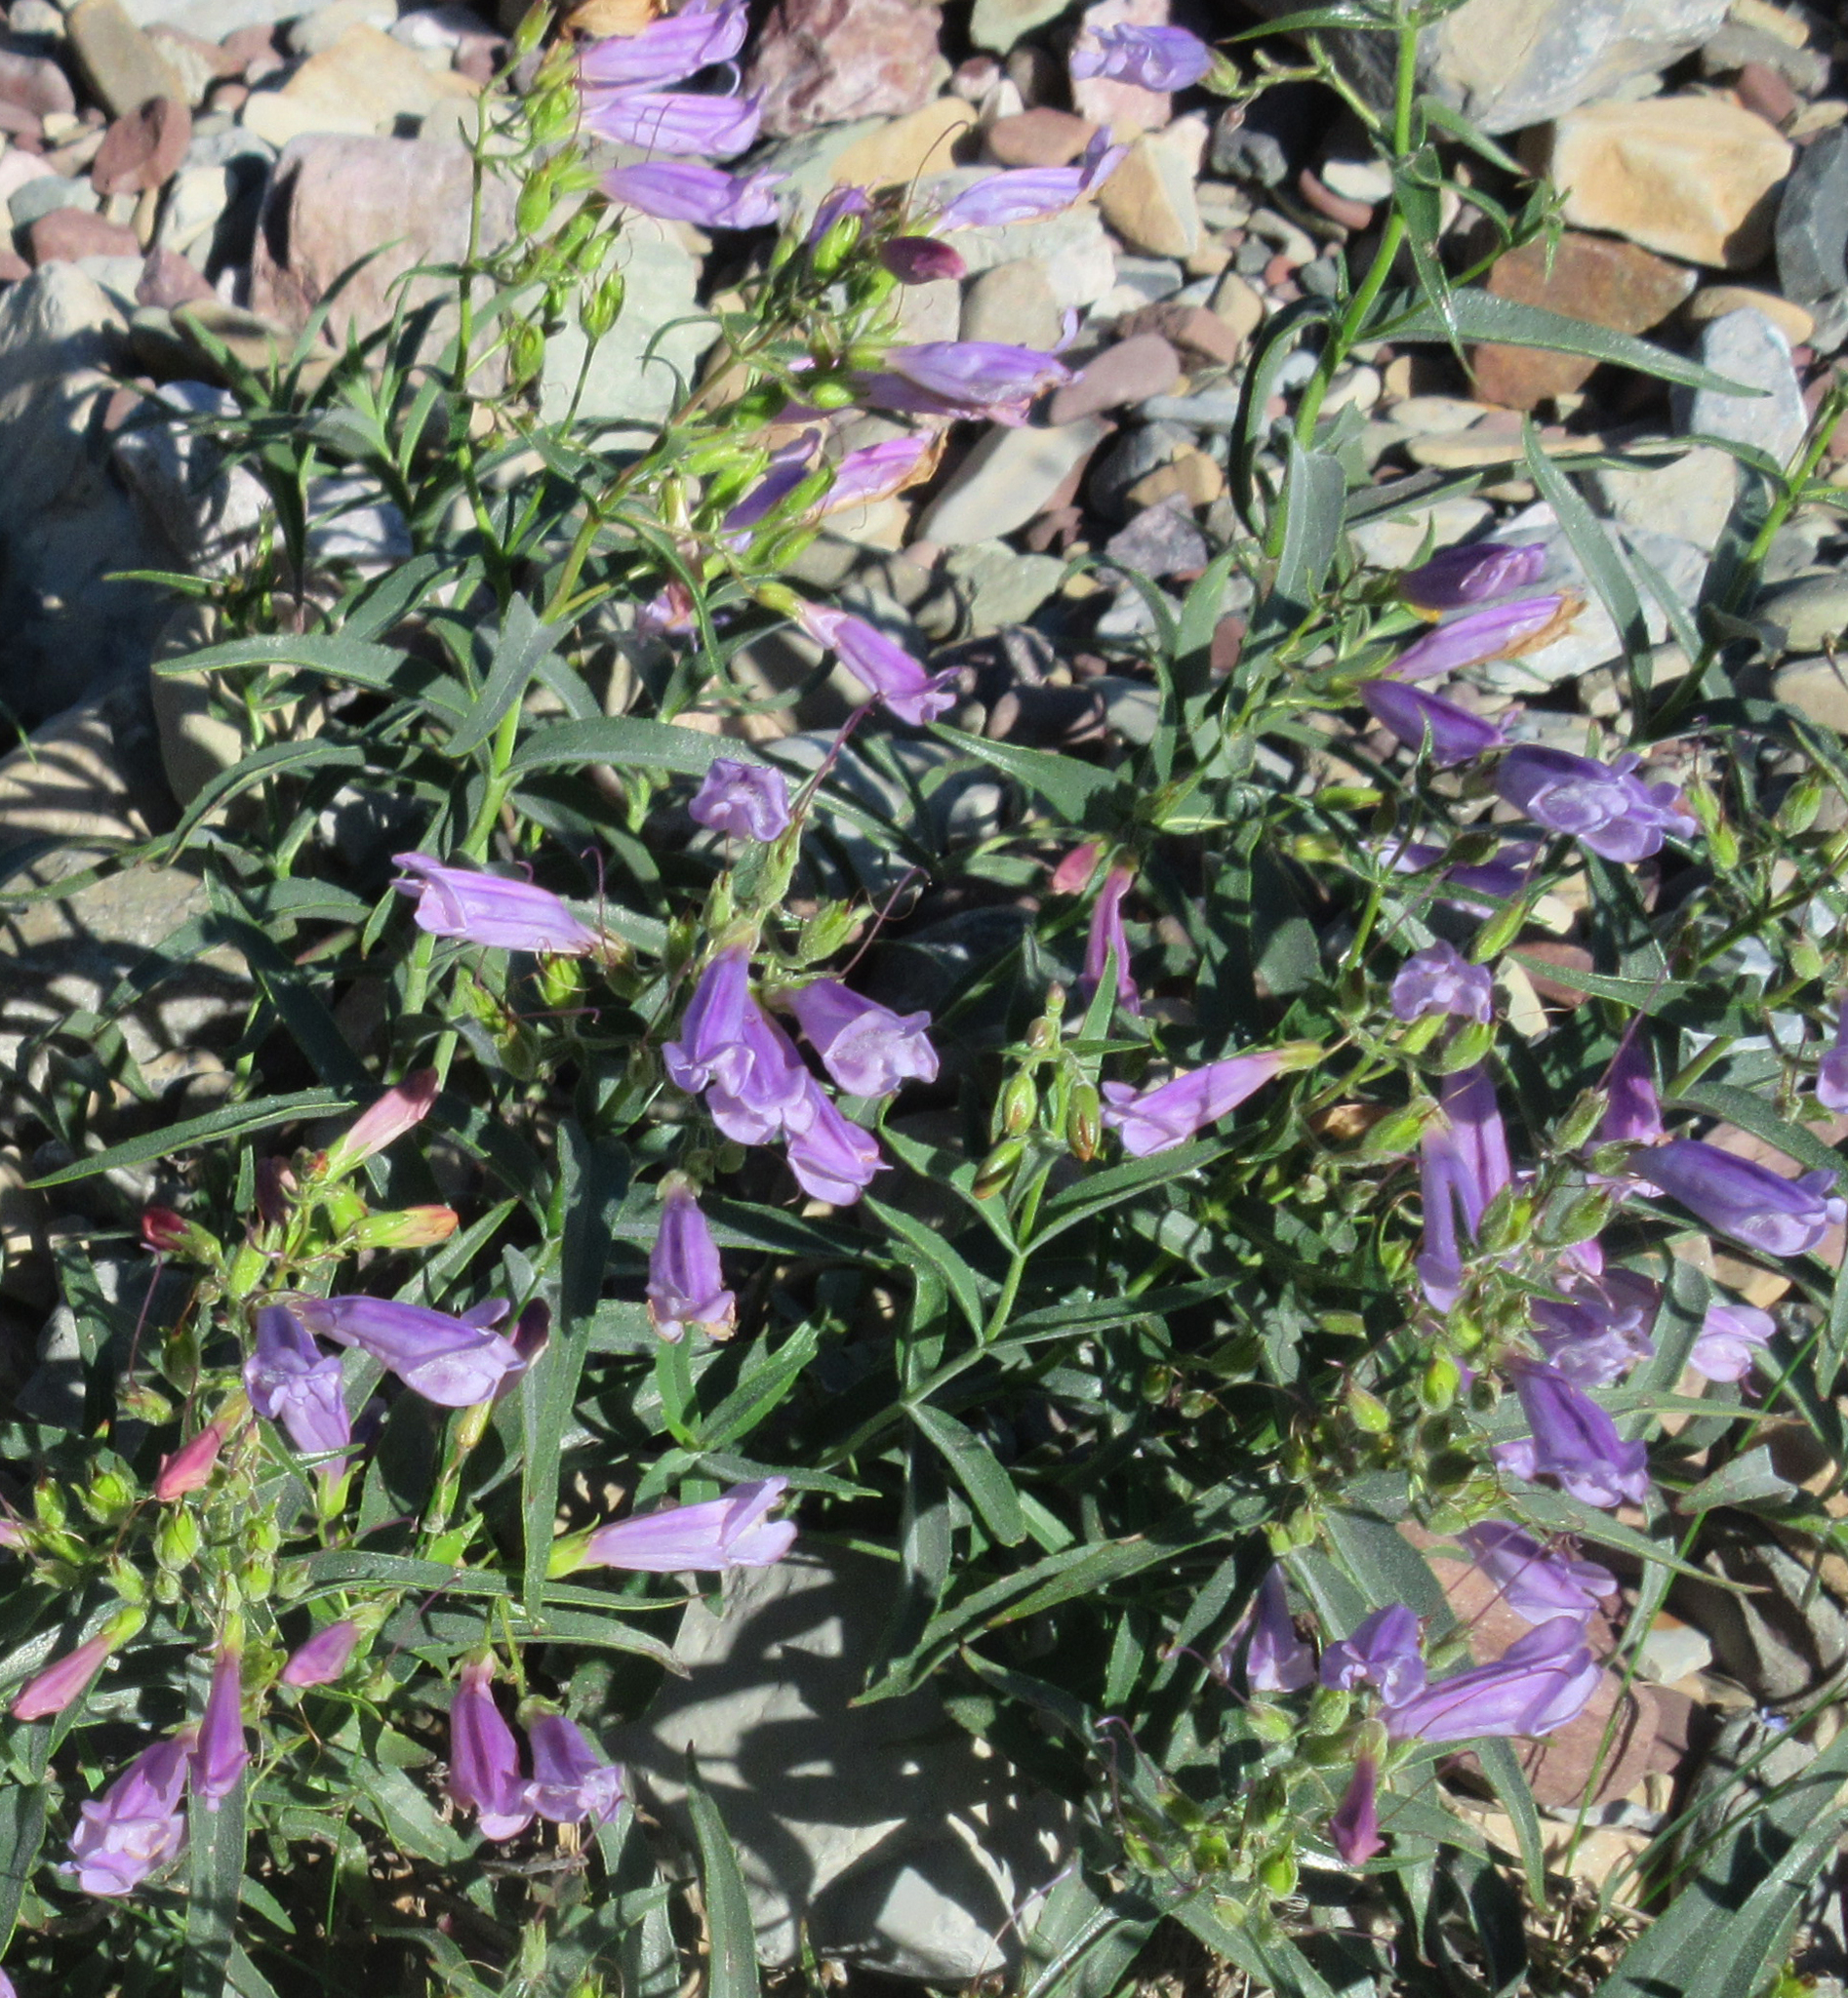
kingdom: Plantae
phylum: Tracheophyta
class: Magnoliopsida
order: Lamiales
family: Plantaginaceae
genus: Penstemon
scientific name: Penstemon lyalli
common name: Lyall's beardtongue
